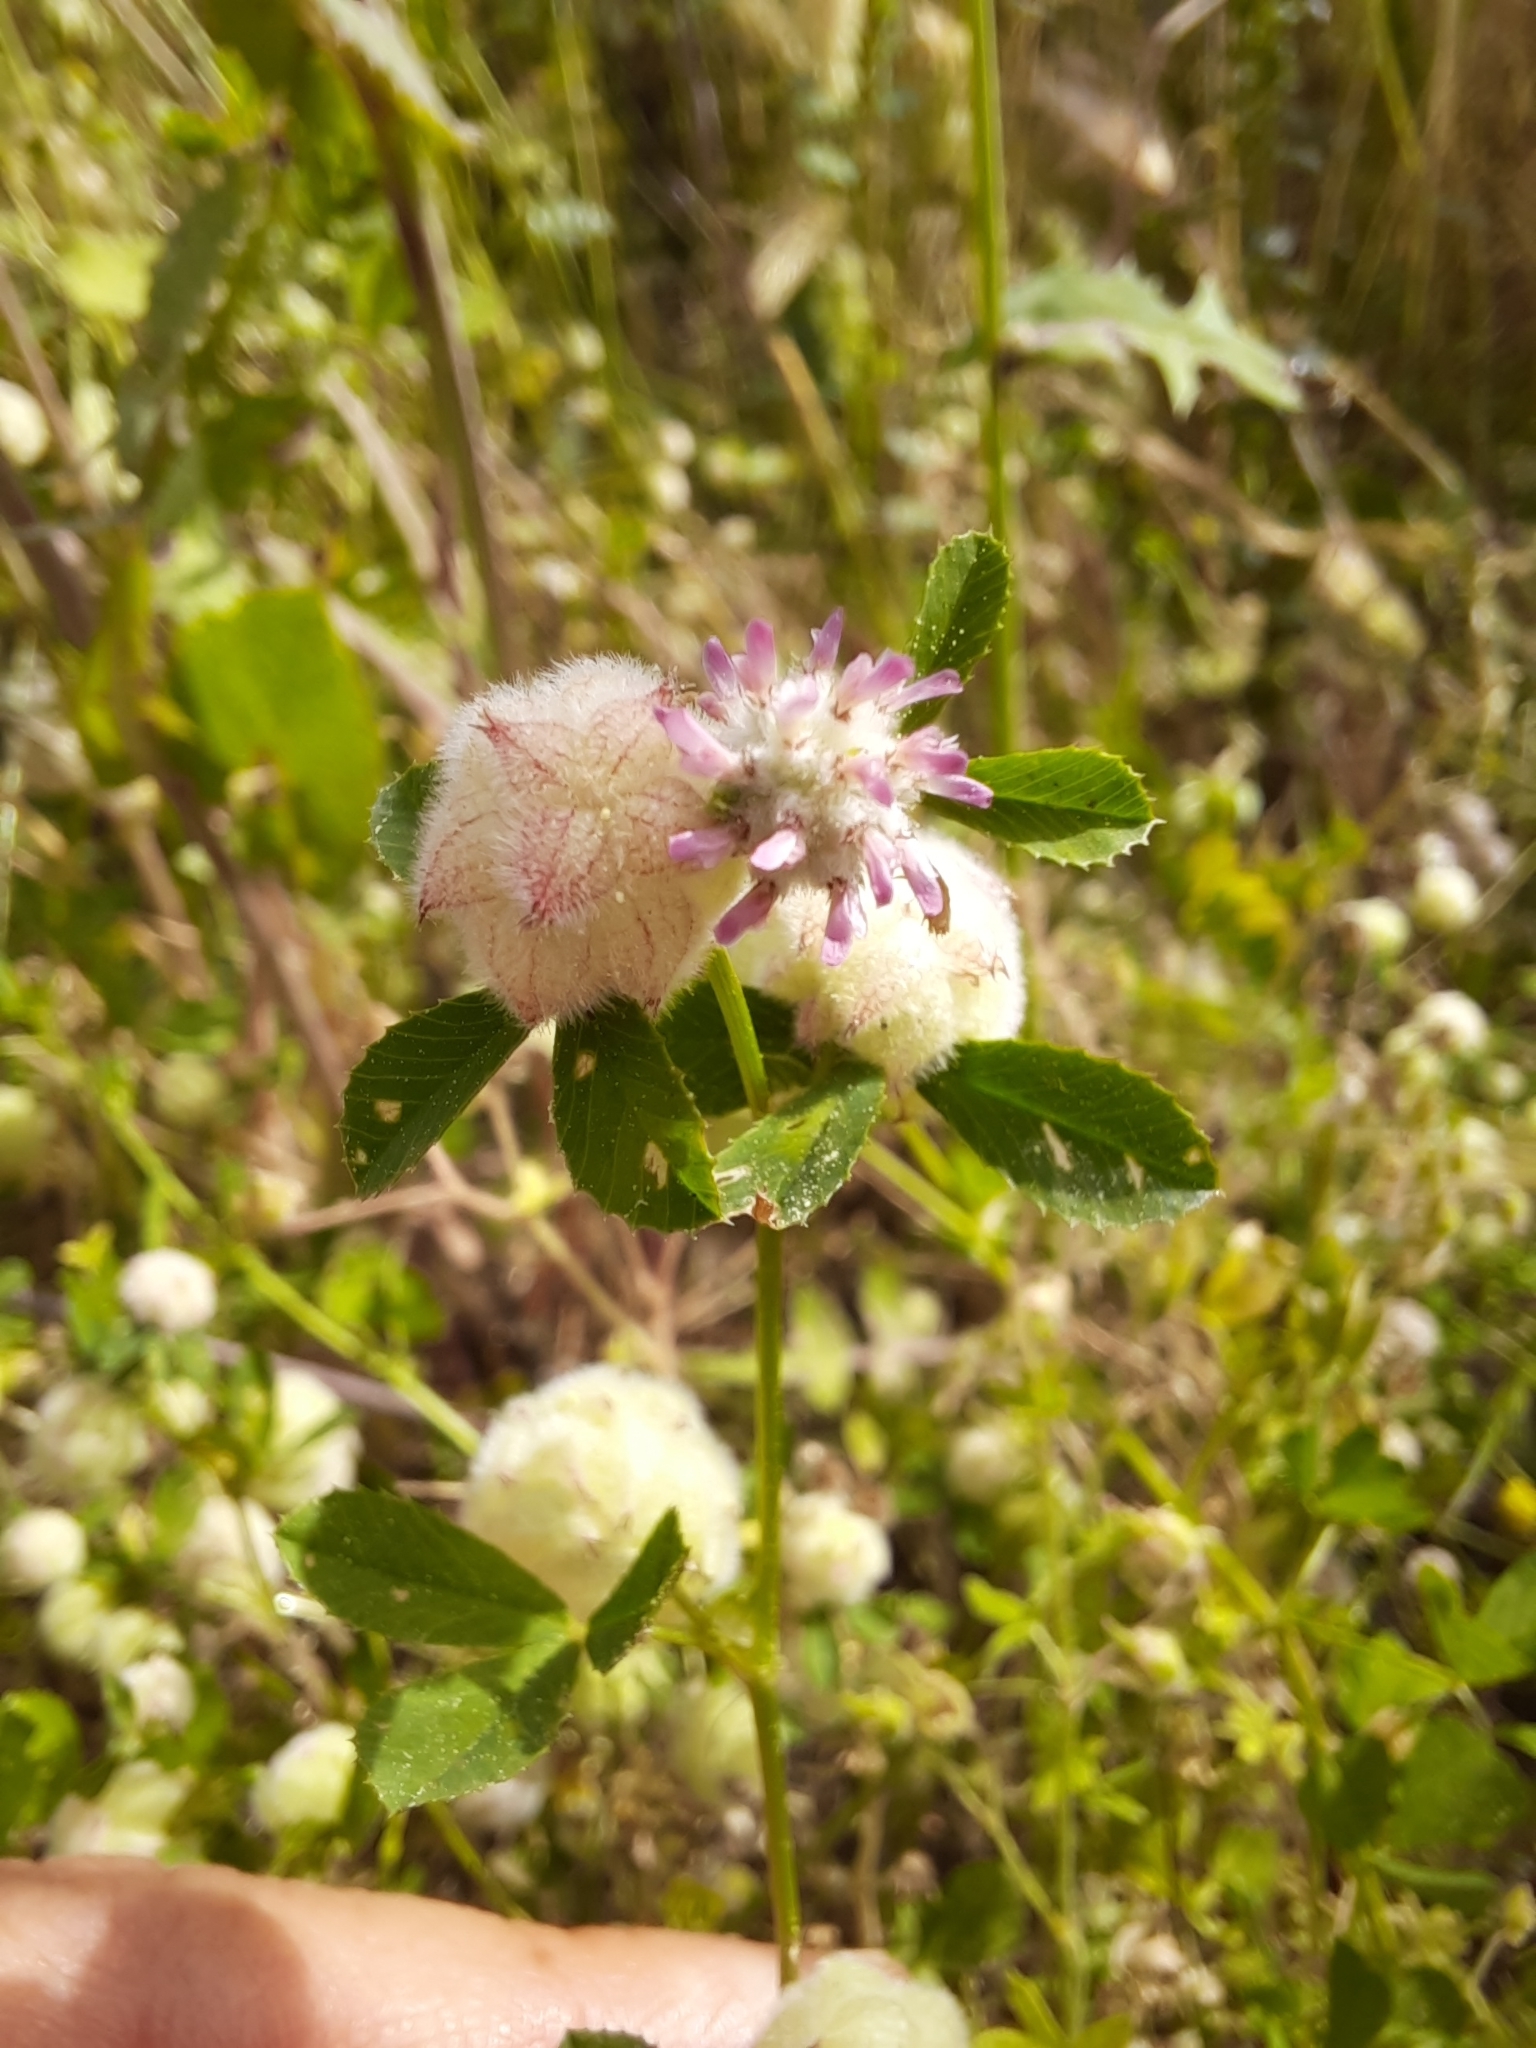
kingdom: Plantae
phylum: Tracheophyta
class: Magnoliopsida
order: Fabales
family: Fabaceae
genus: Trifolium
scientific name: Trifolium tomentosum
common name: Woolly clover
